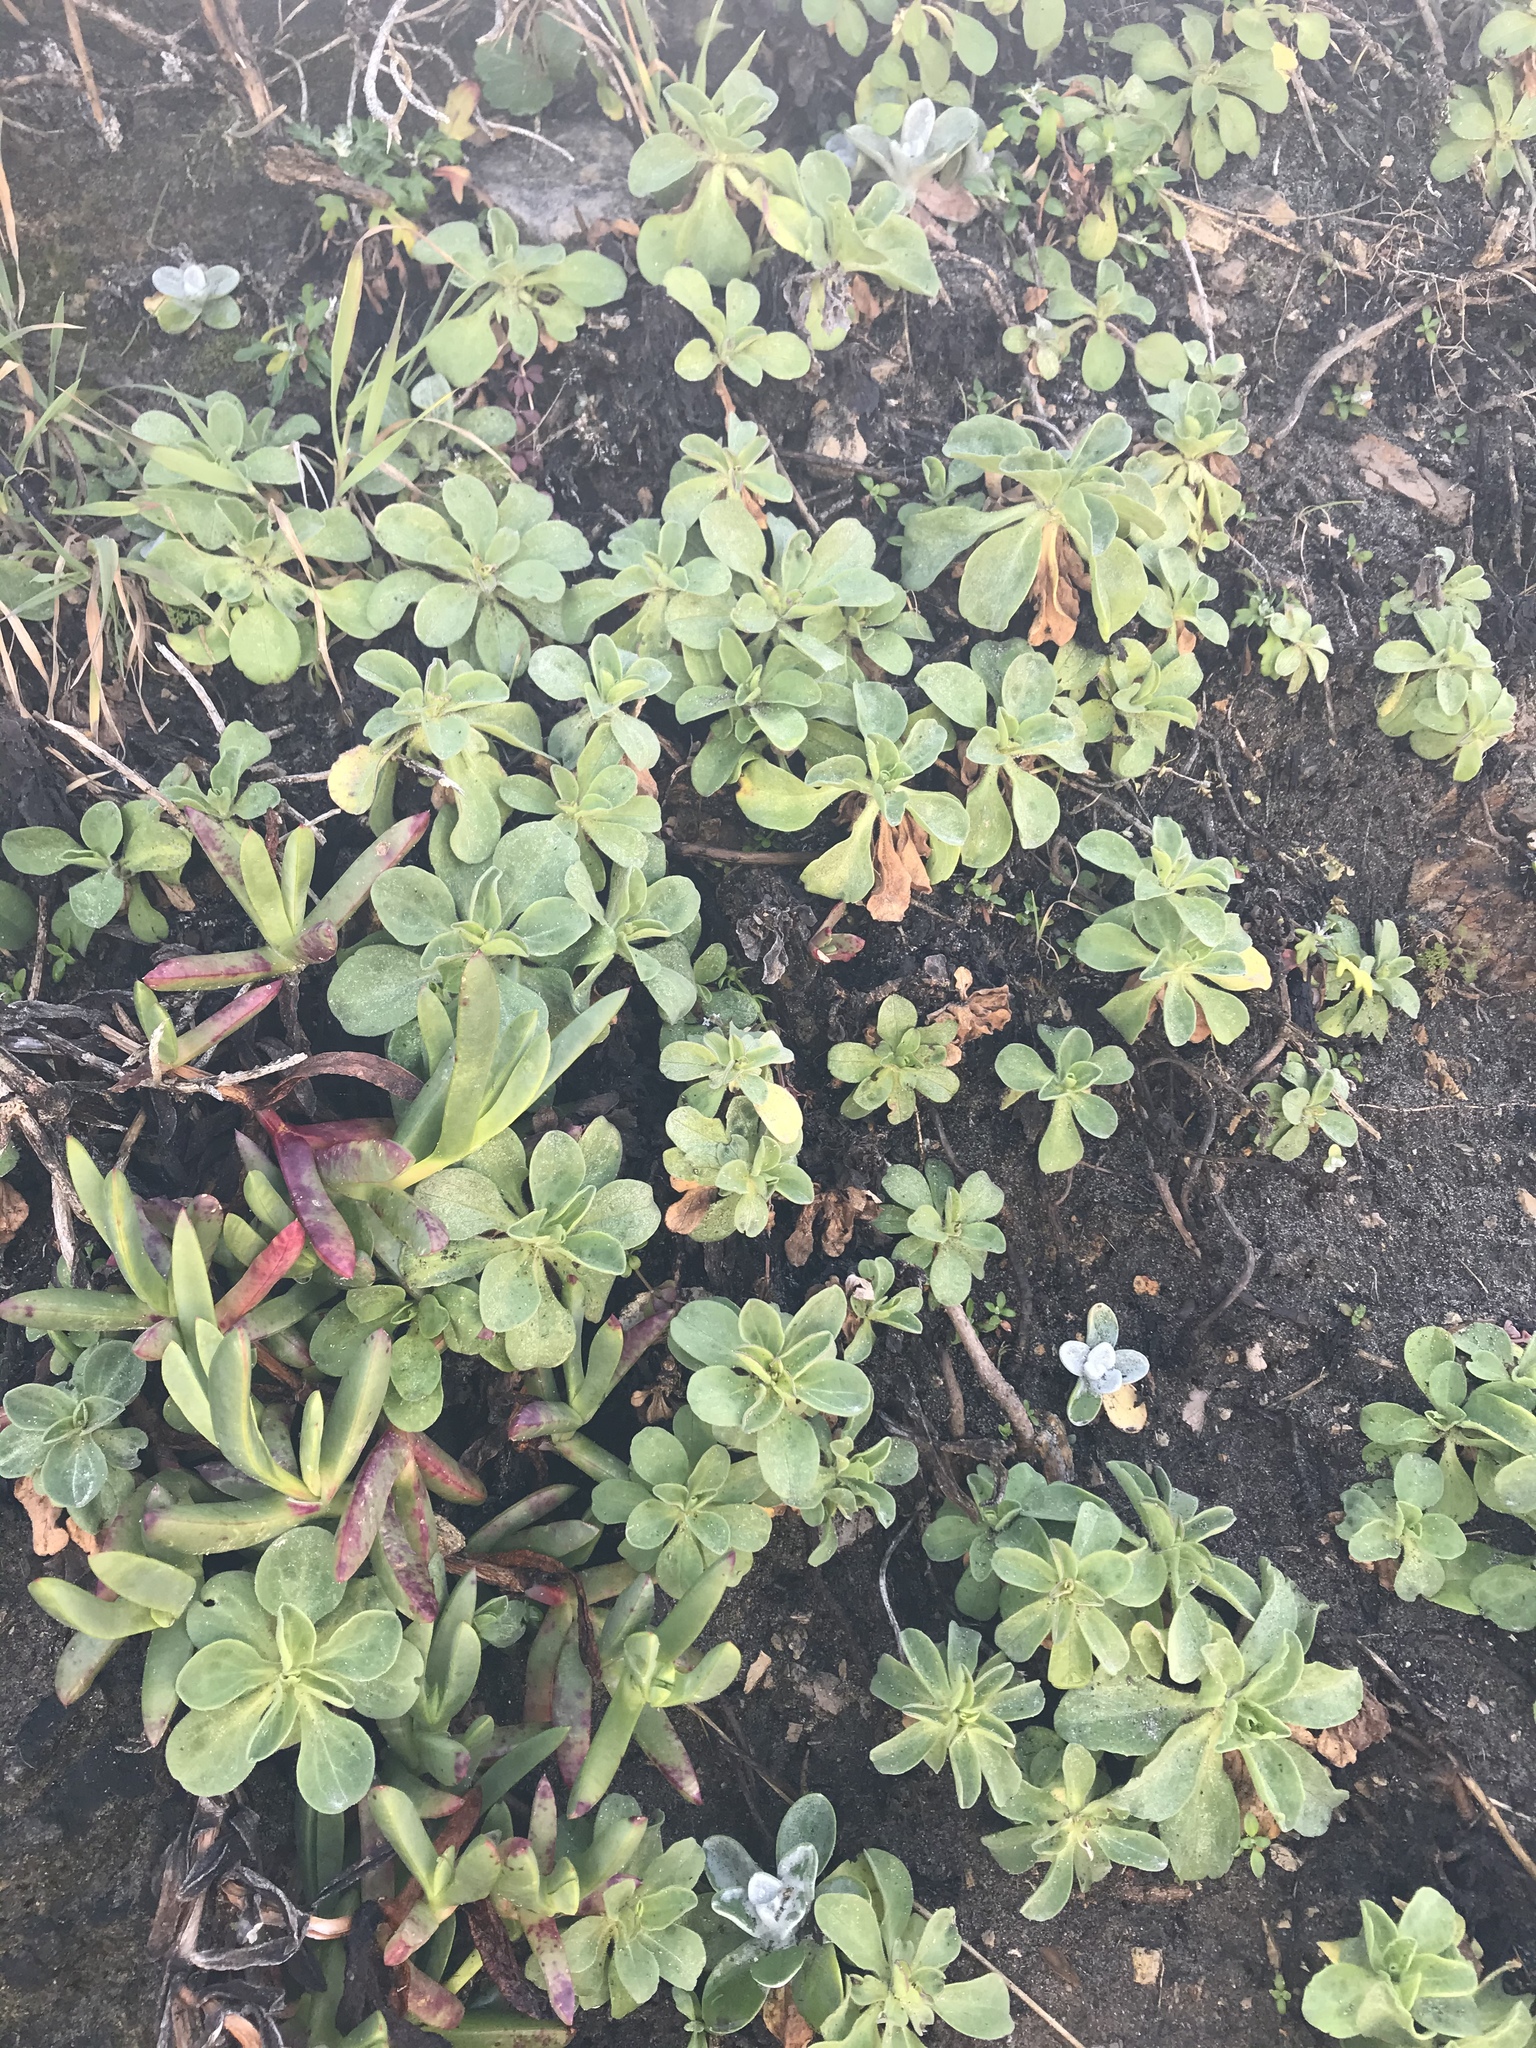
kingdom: Plantae
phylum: Tracheophyta
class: Magnoliopsida
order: Asterales
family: Asteraceae
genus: Erigeron
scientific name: Erigeron glaucus
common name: Seaside daisy
